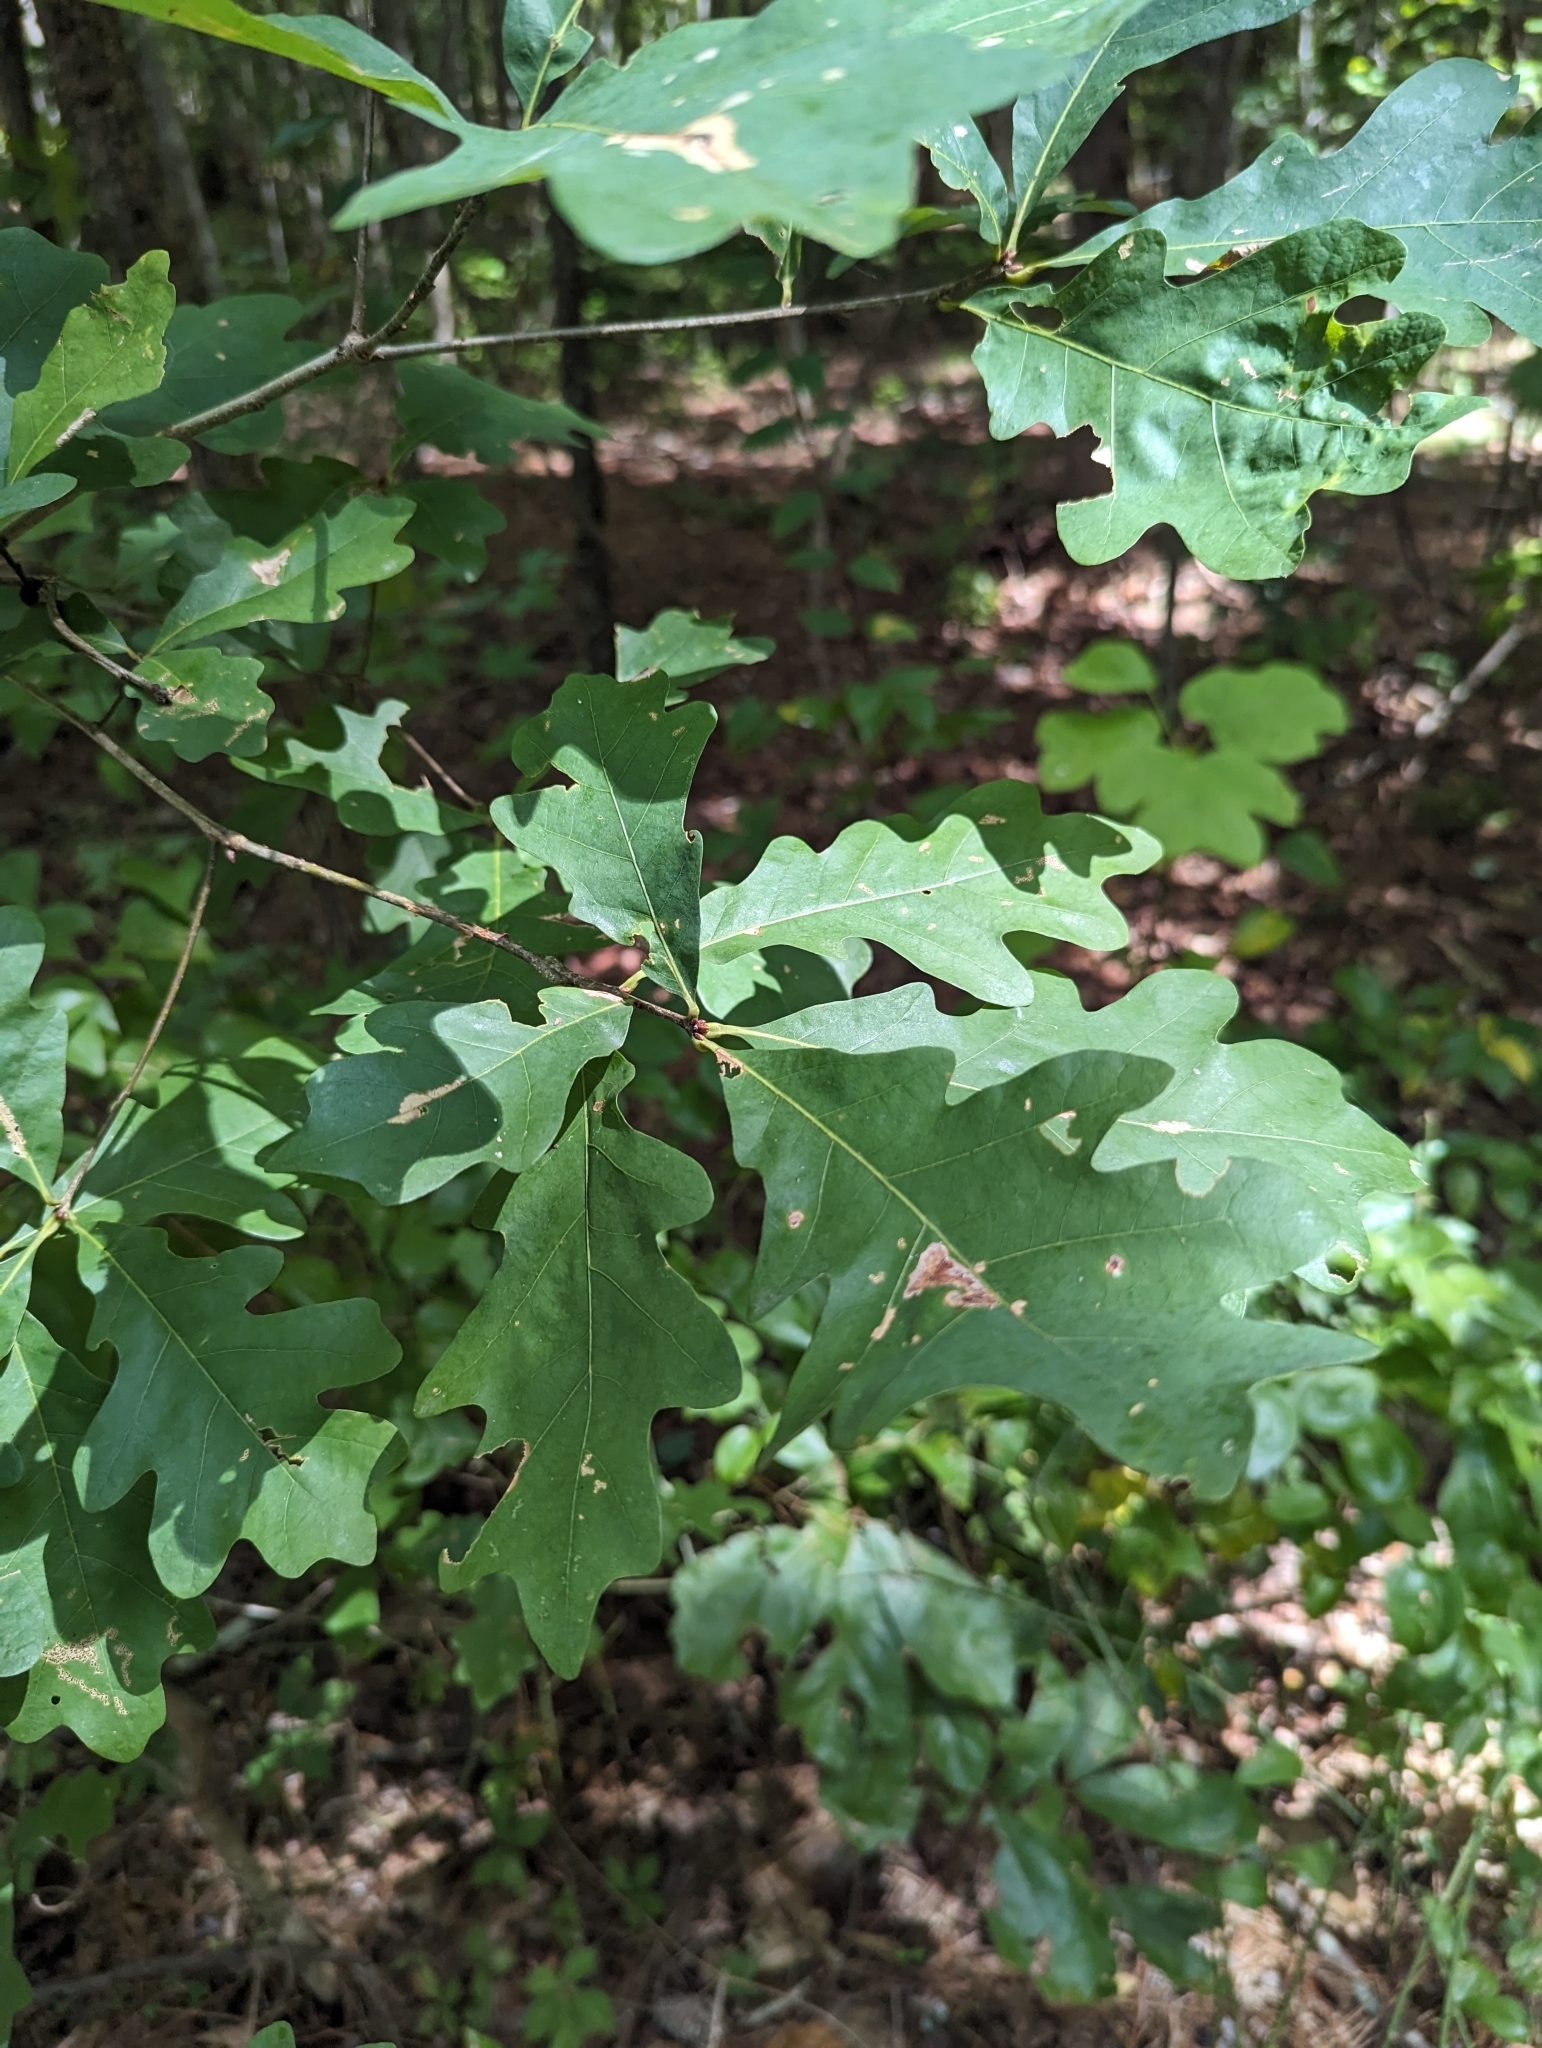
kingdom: Plantae
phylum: Tracheophyta
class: Magnoliopsida
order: Fagales
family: Fagaceae
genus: Quercus
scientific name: Quercus alba
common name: White oak
